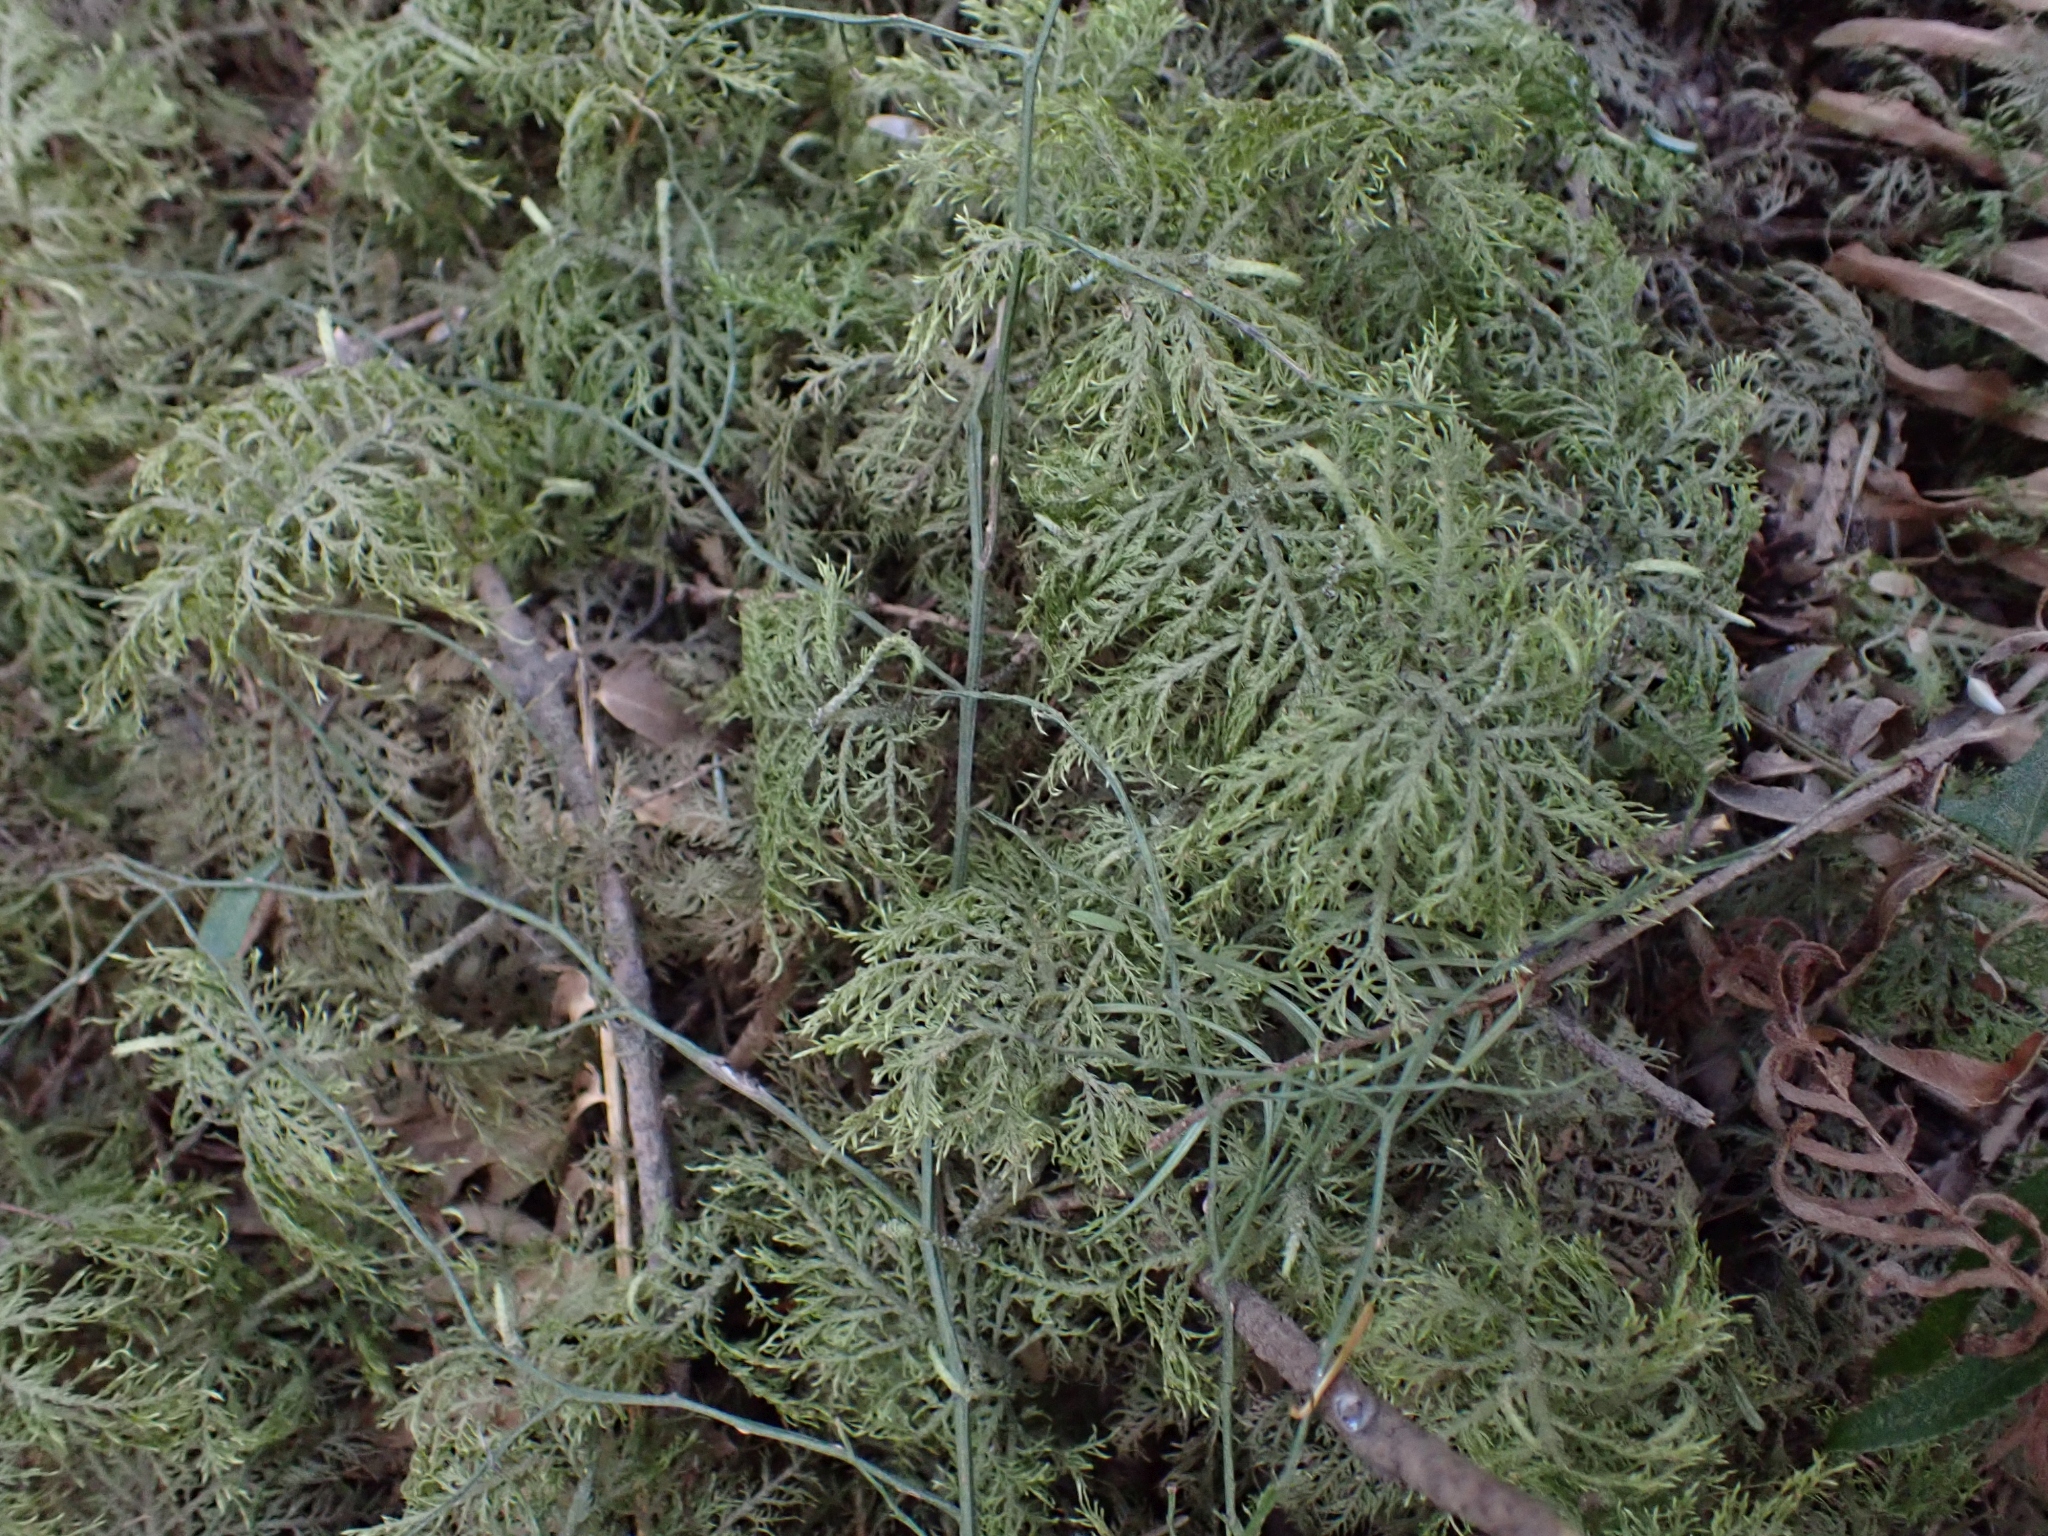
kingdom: Plantae
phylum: Bryophyta
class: Bryopsida
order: Hypnales
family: Hylocomiaceae
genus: Hylocomium
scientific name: Hylocomium splendens
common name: Stairstep moss
